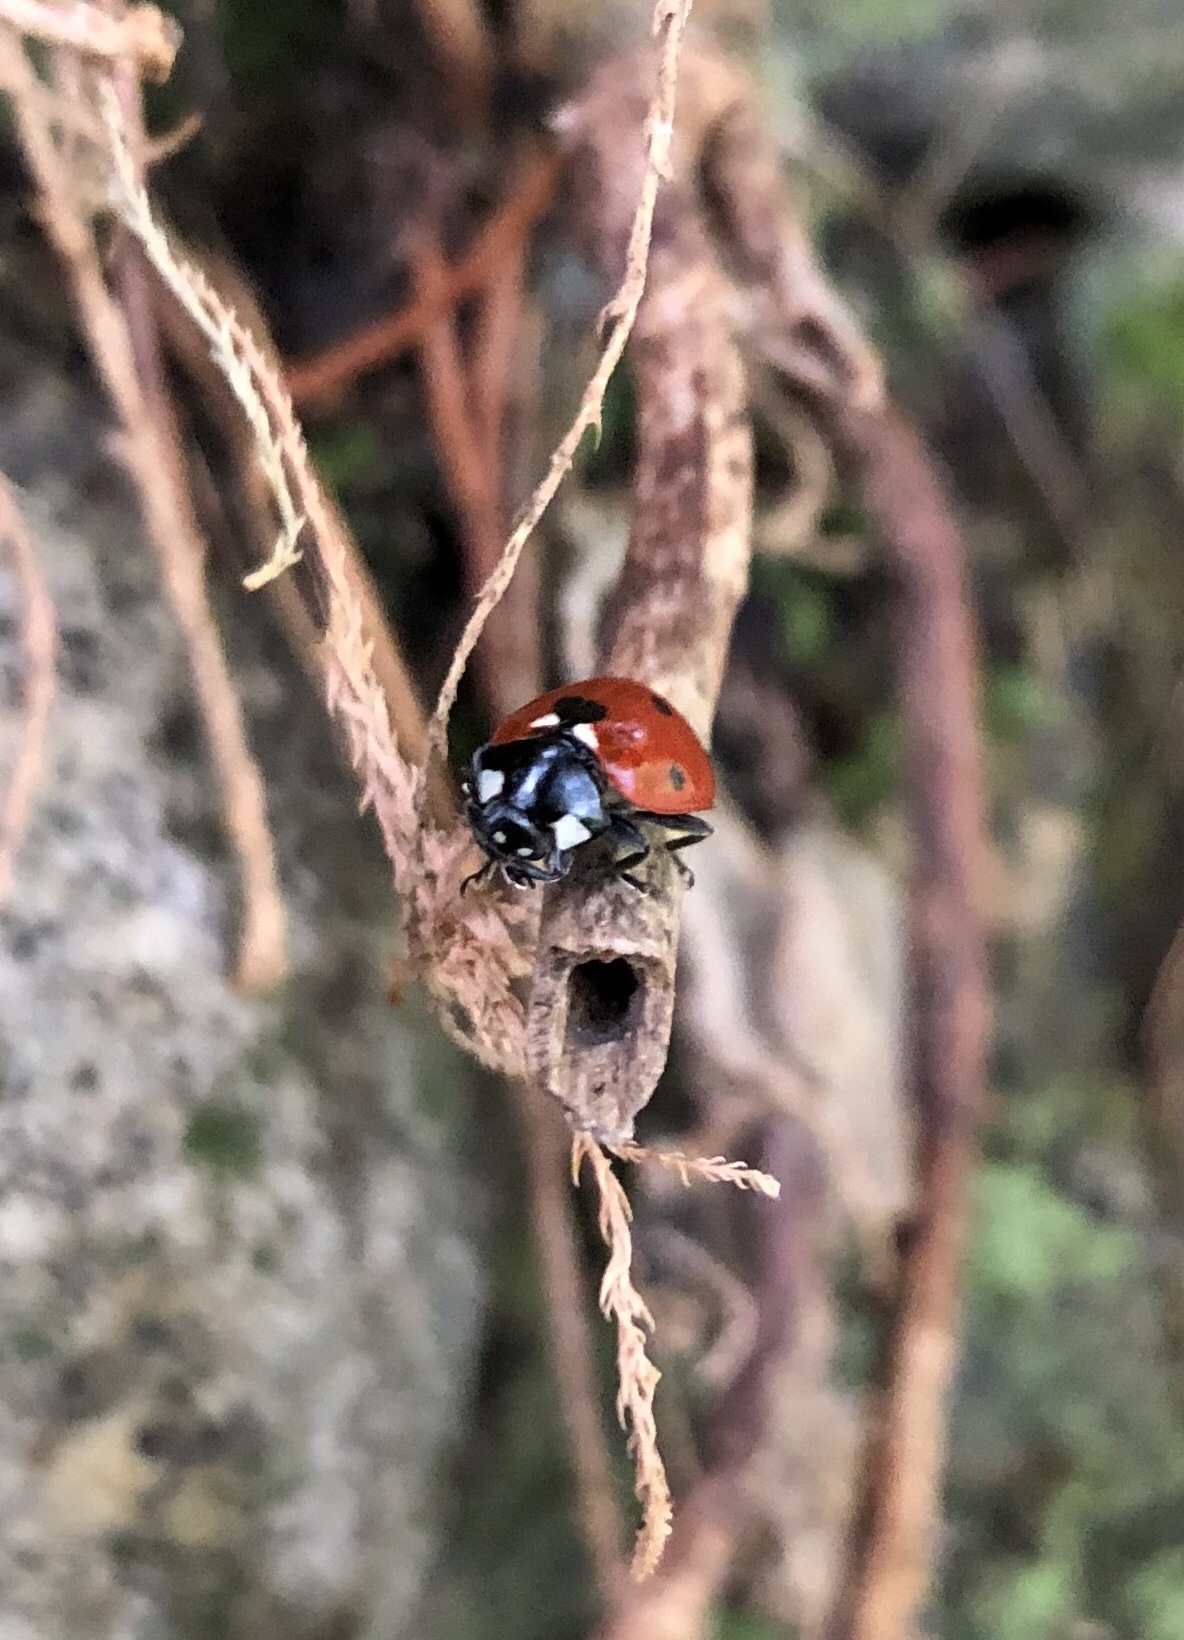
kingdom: Animalia
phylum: Arthropoda
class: Insecta
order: Coleoptera
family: Coccinellidae
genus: Coccinella
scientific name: Coccinella septempunctata
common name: Sevenspotted lady beetle
